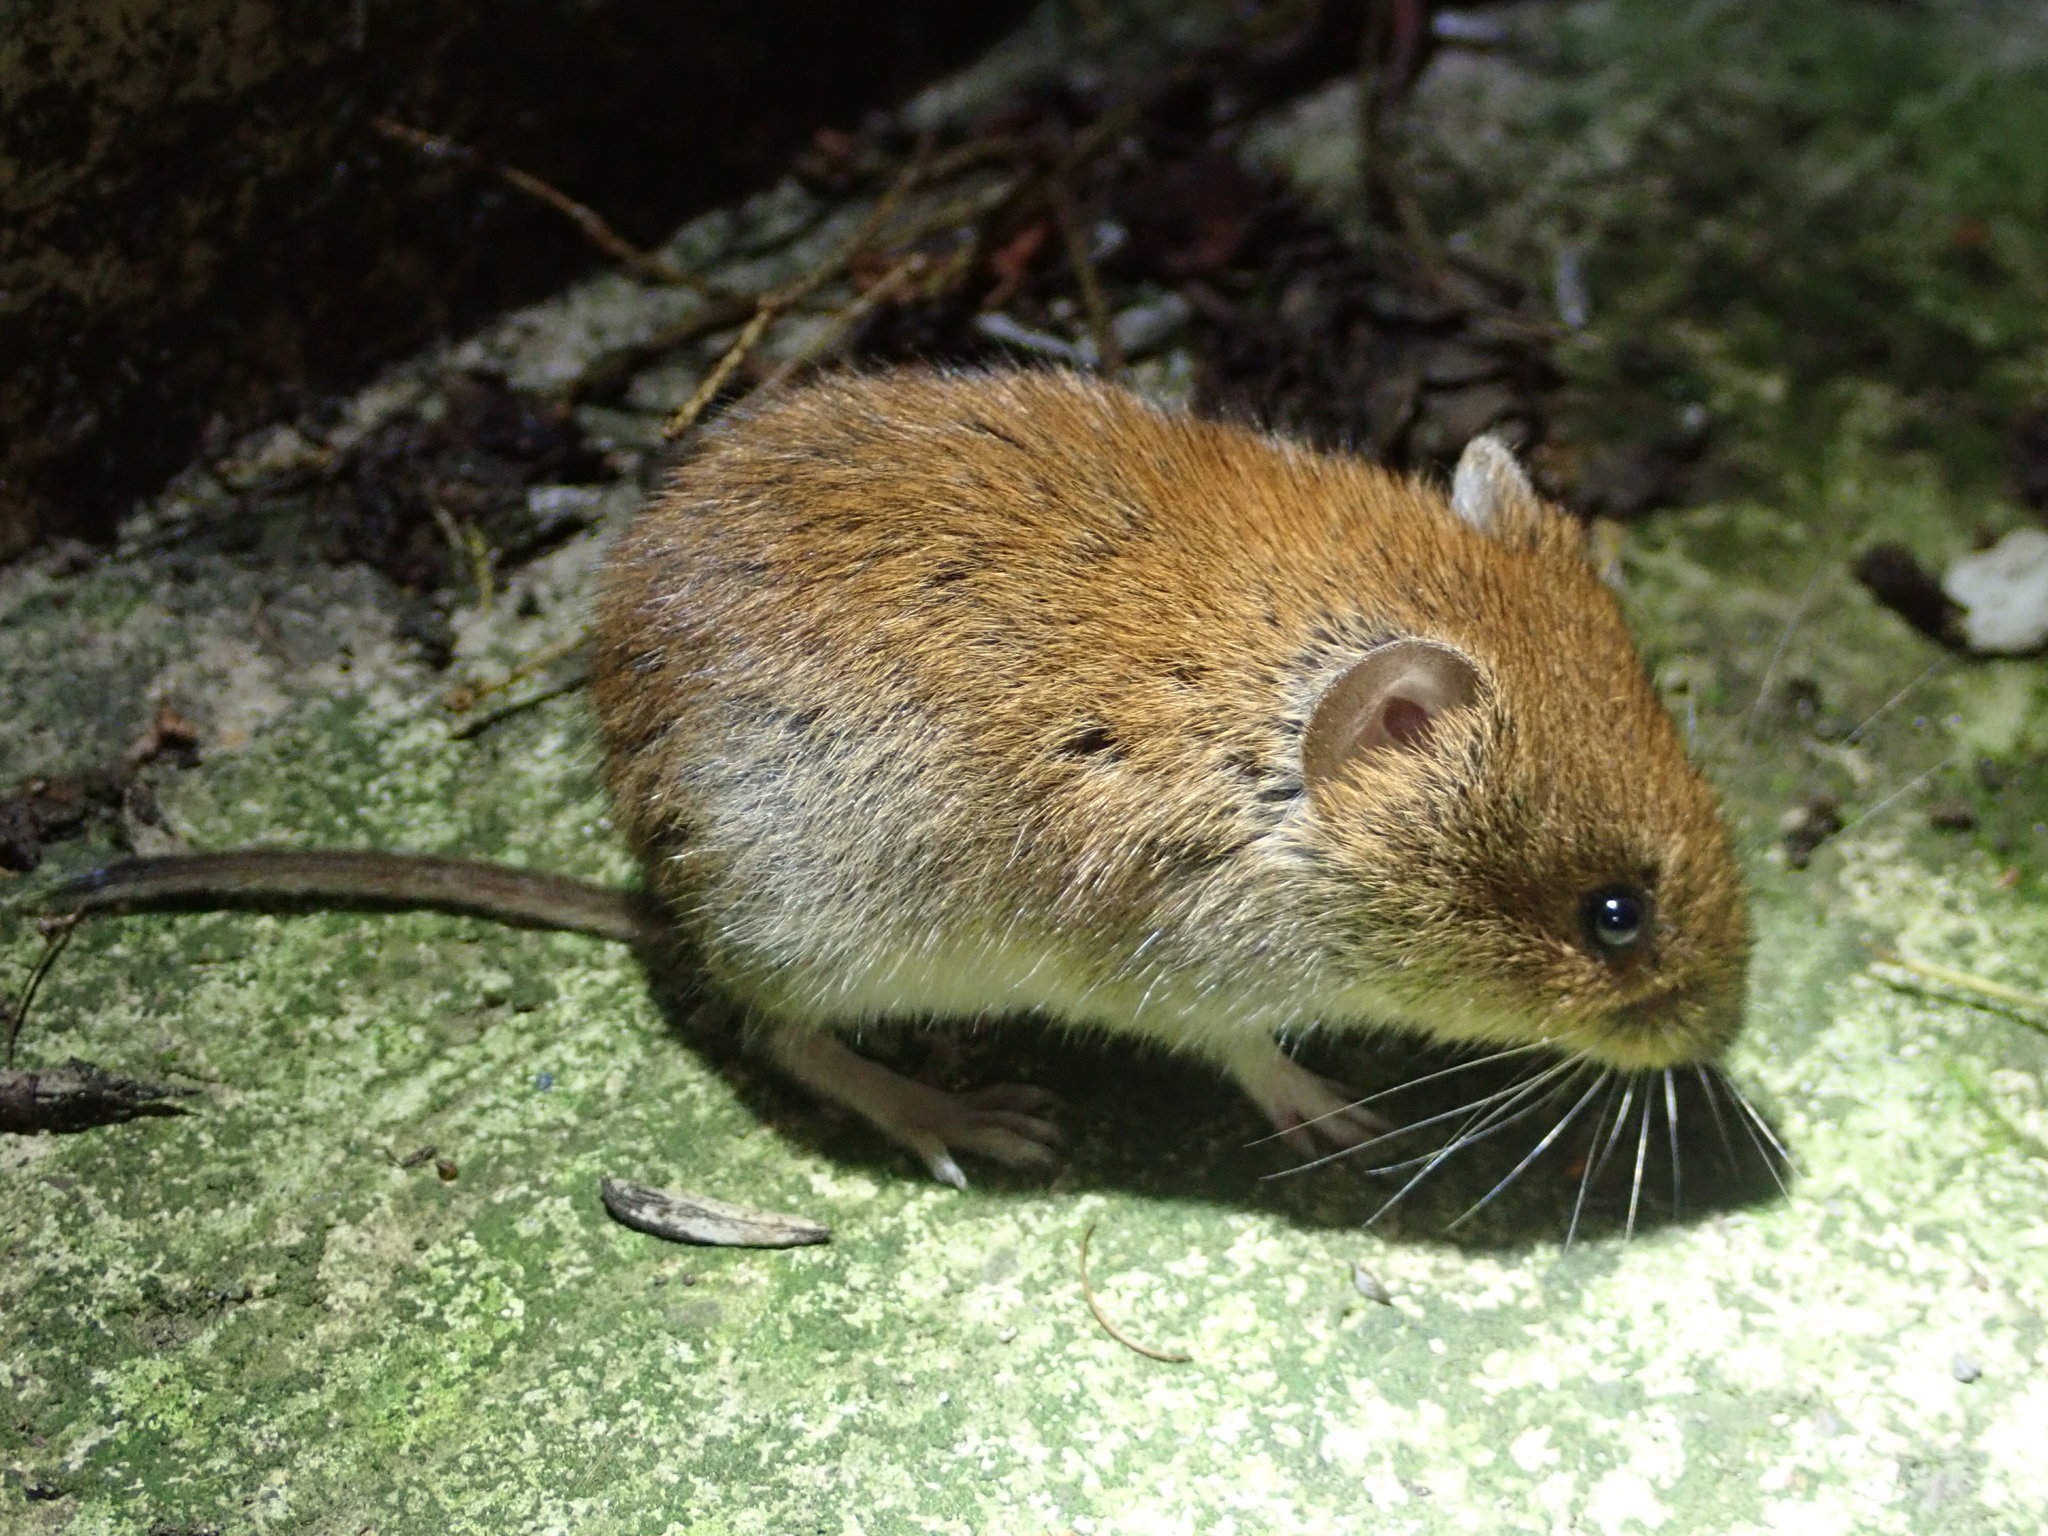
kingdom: Animalia
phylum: Chordata
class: Mammalia
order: Rodentia
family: Cricetidae
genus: Myodes
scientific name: Myodes glareolus
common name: Bank vole
